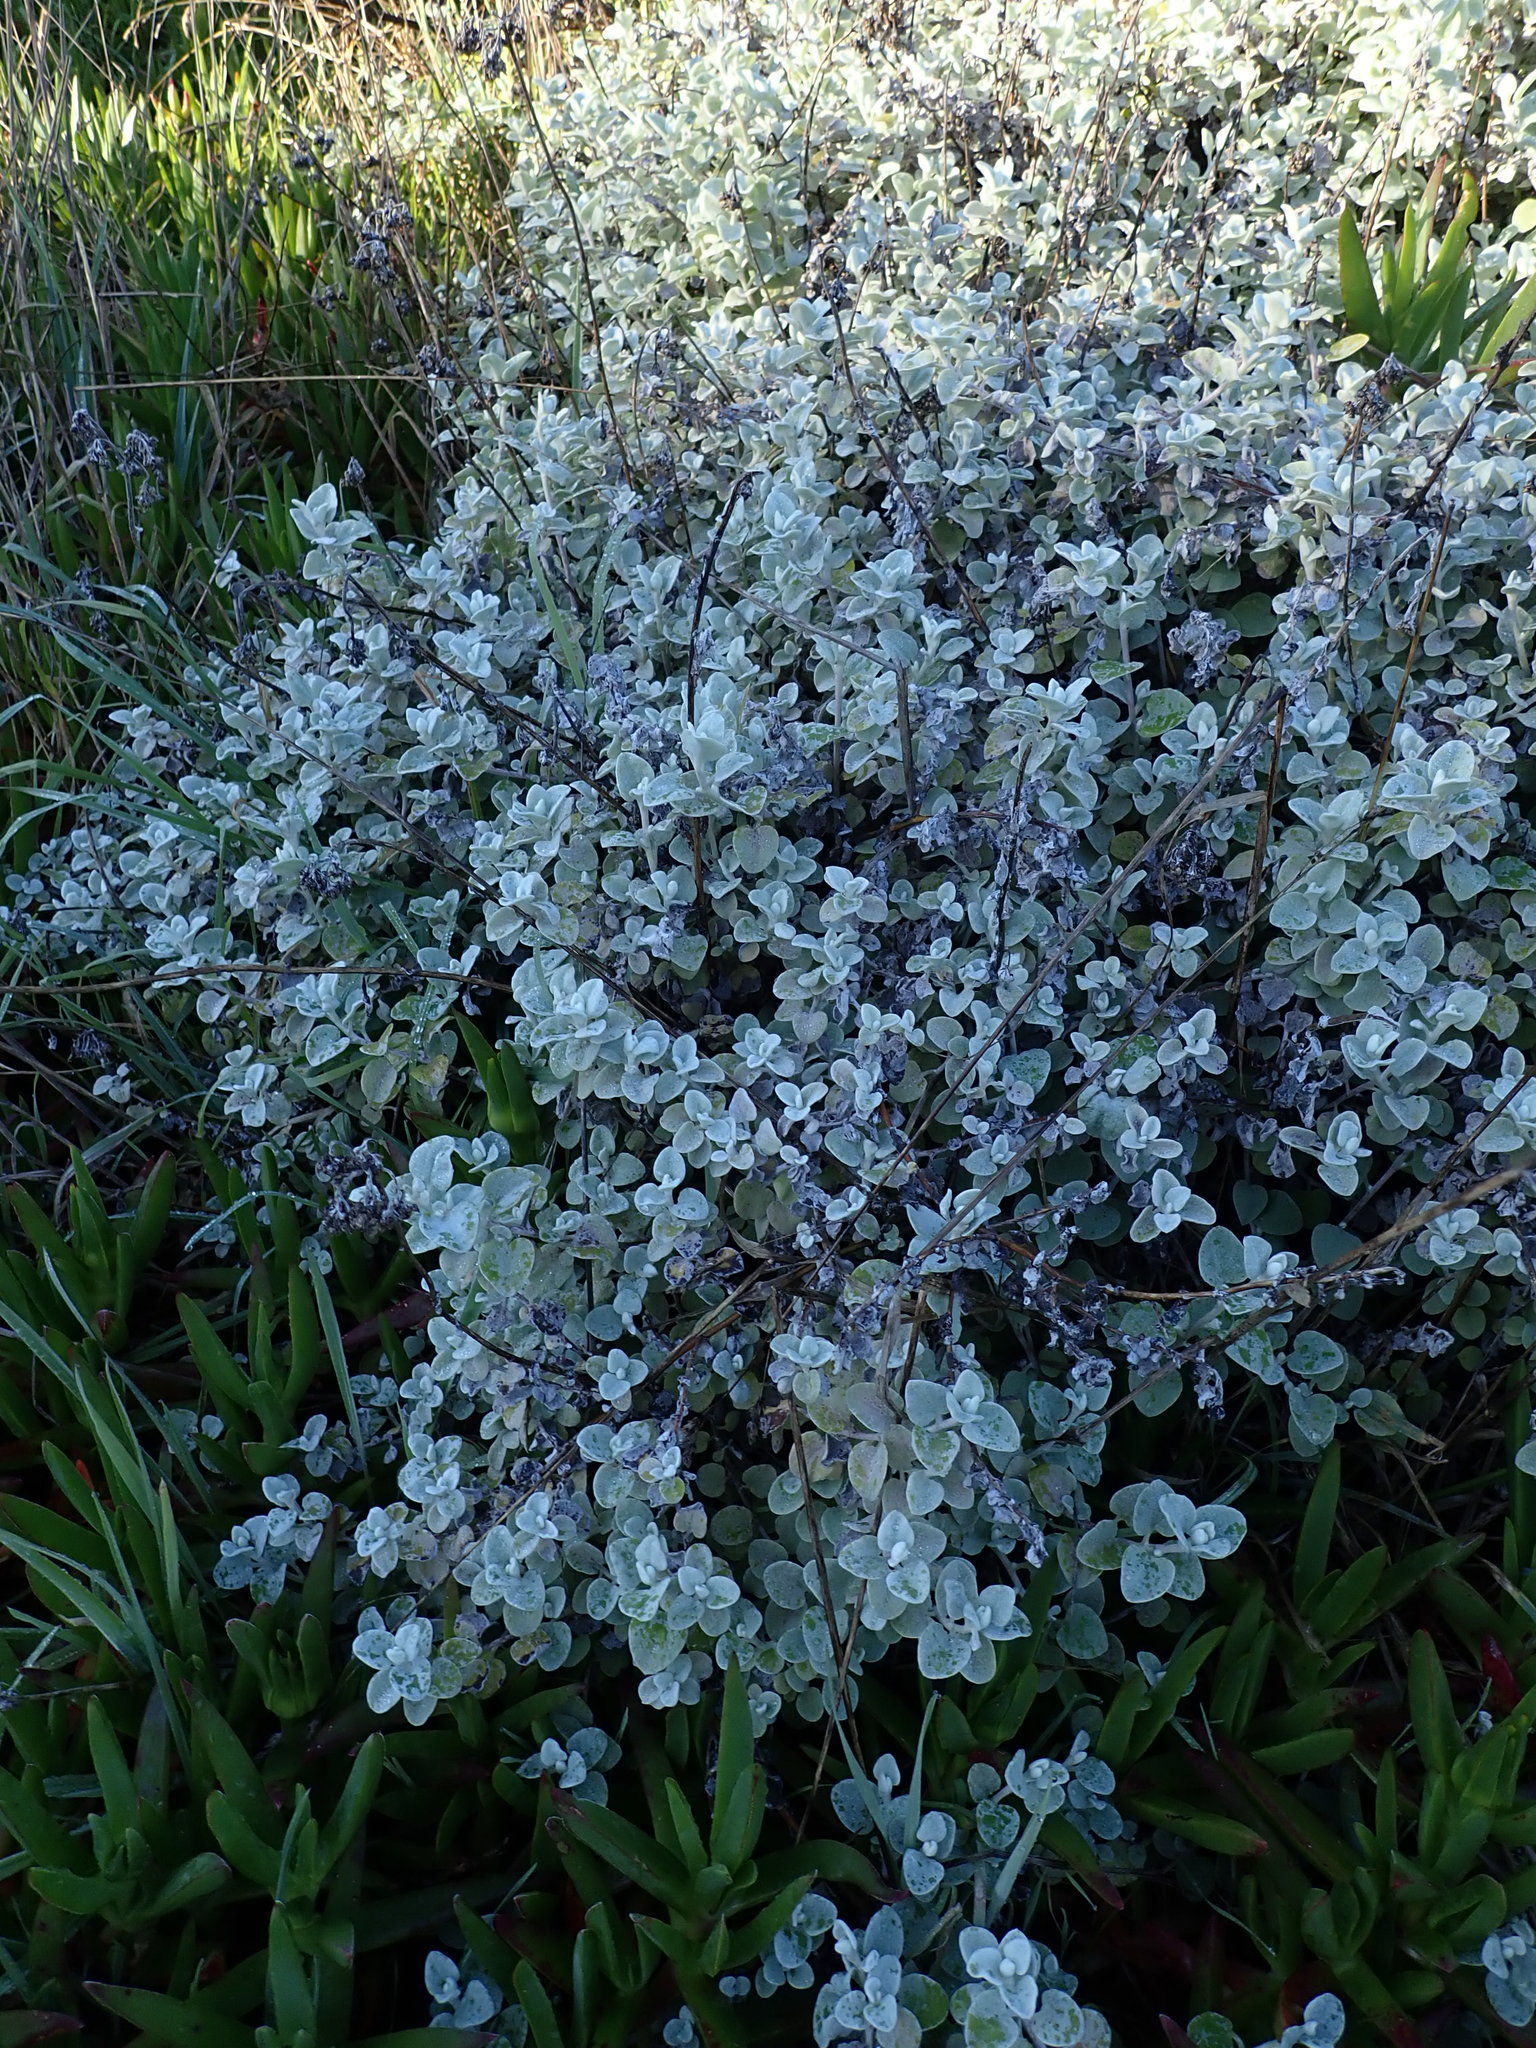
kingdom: Plantae
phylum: Tracheophyta
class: Magnoliopsida
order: Asterales
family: Asteraceae
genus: Helichrysum
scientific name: Helichrysum petiolare
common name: Licorice-plant
